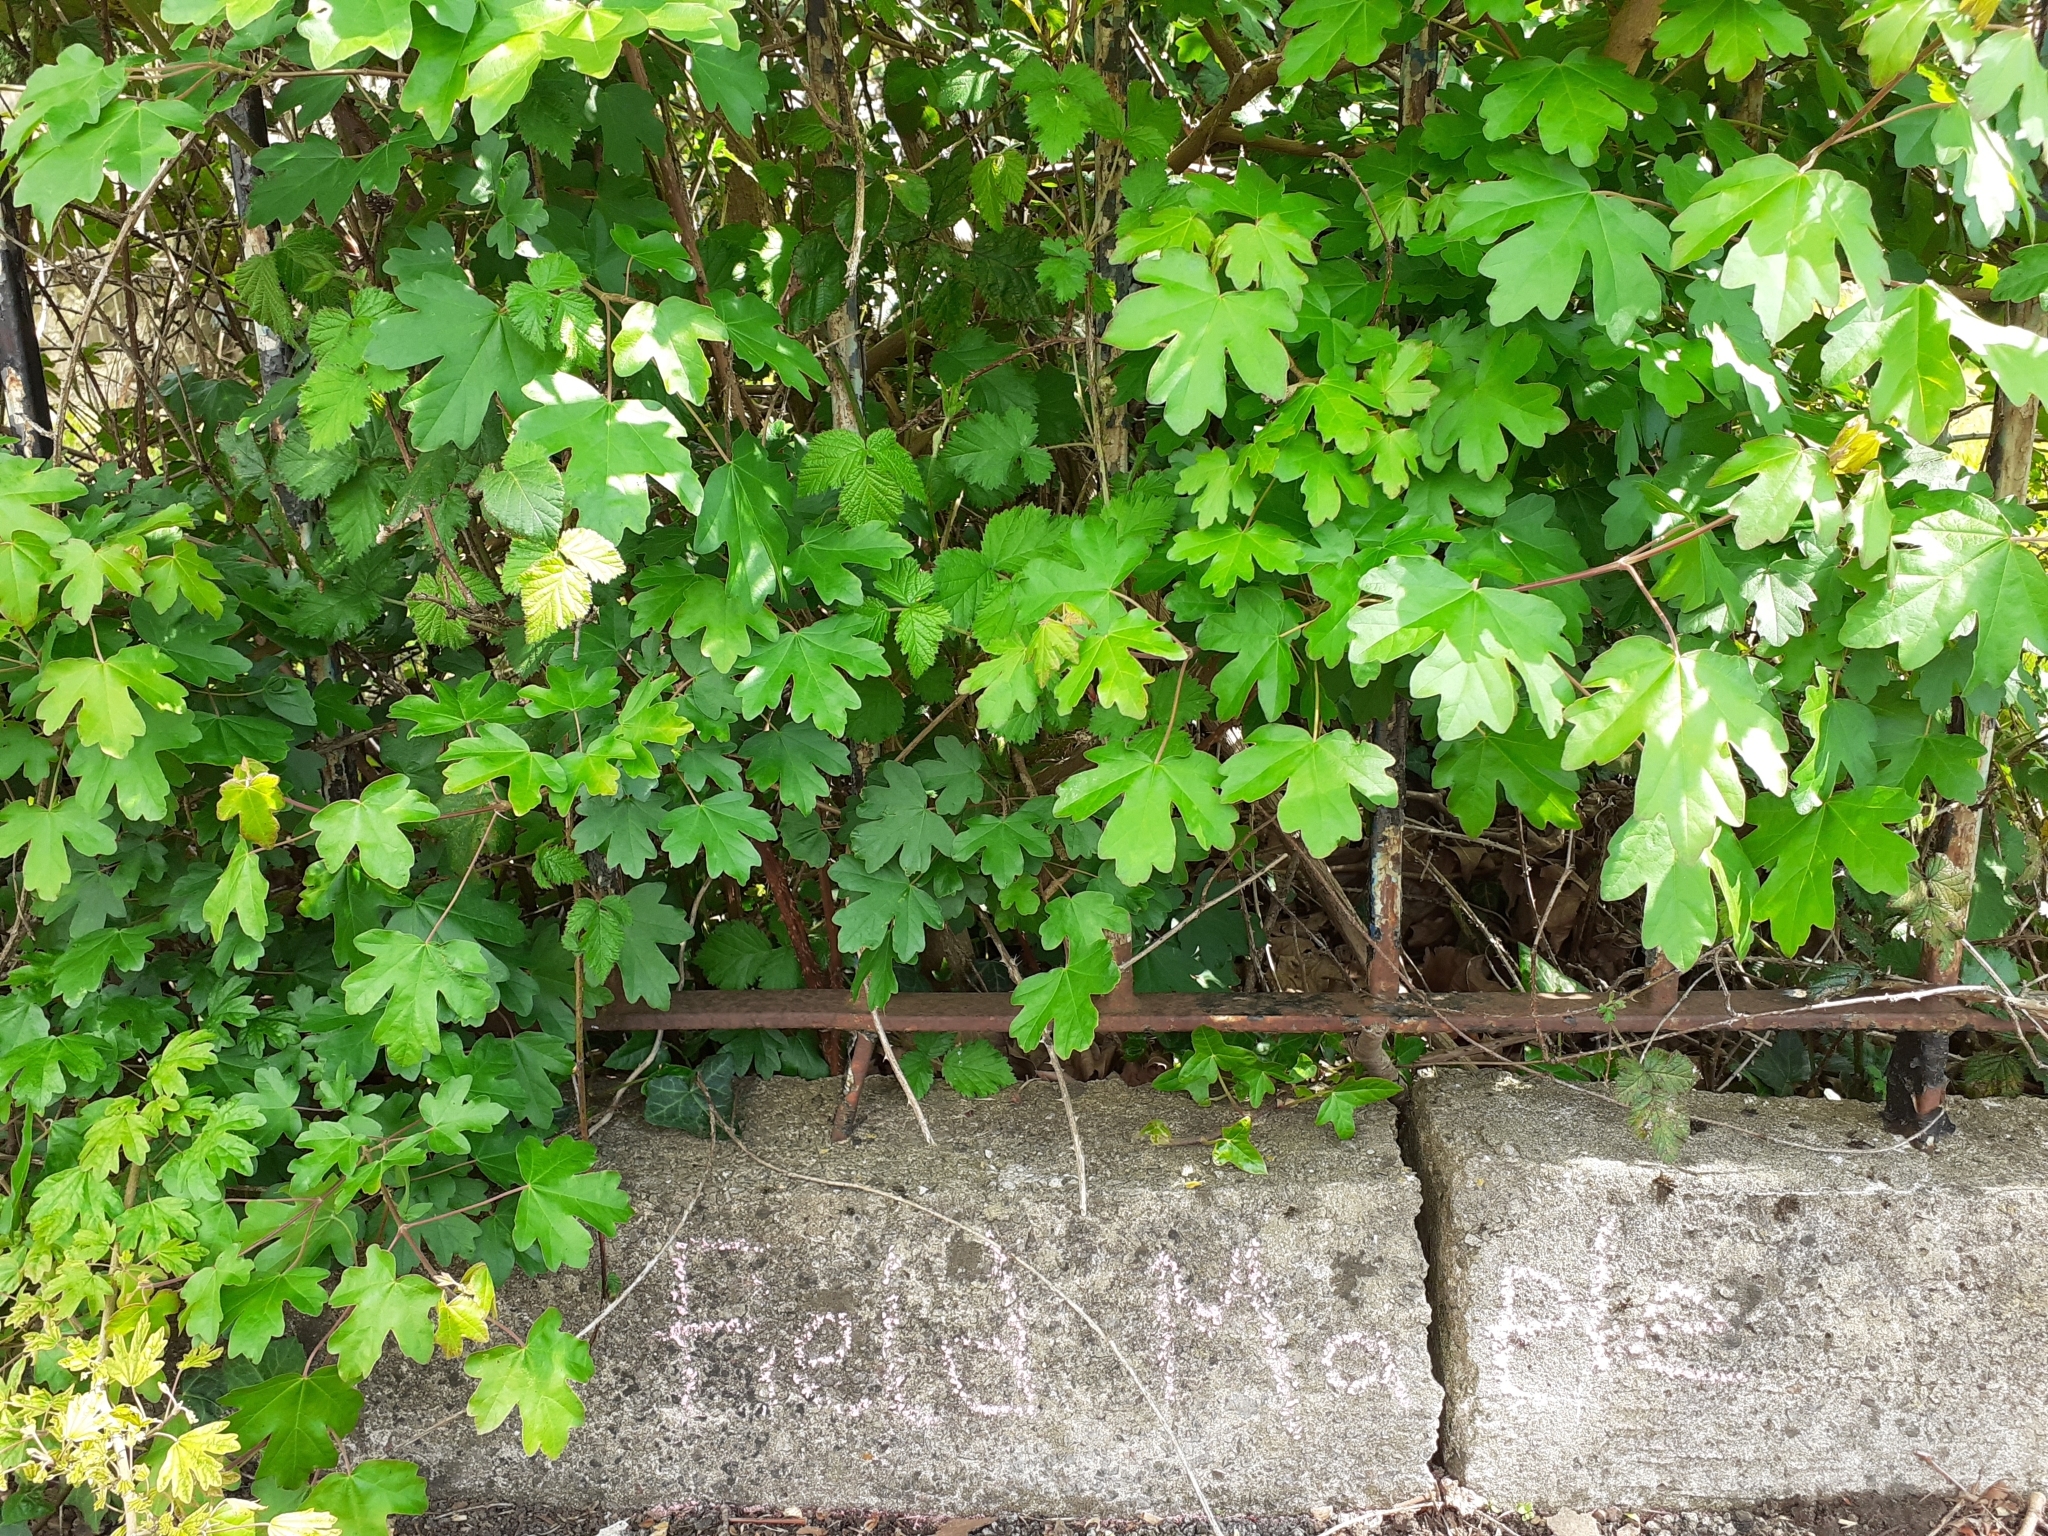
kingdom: Plantae
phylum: Tracheophyta
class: Magnoliopsida
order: Sapindales
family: Sapindaceae
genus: Acer
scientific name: Acer campestre
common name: Field maple
